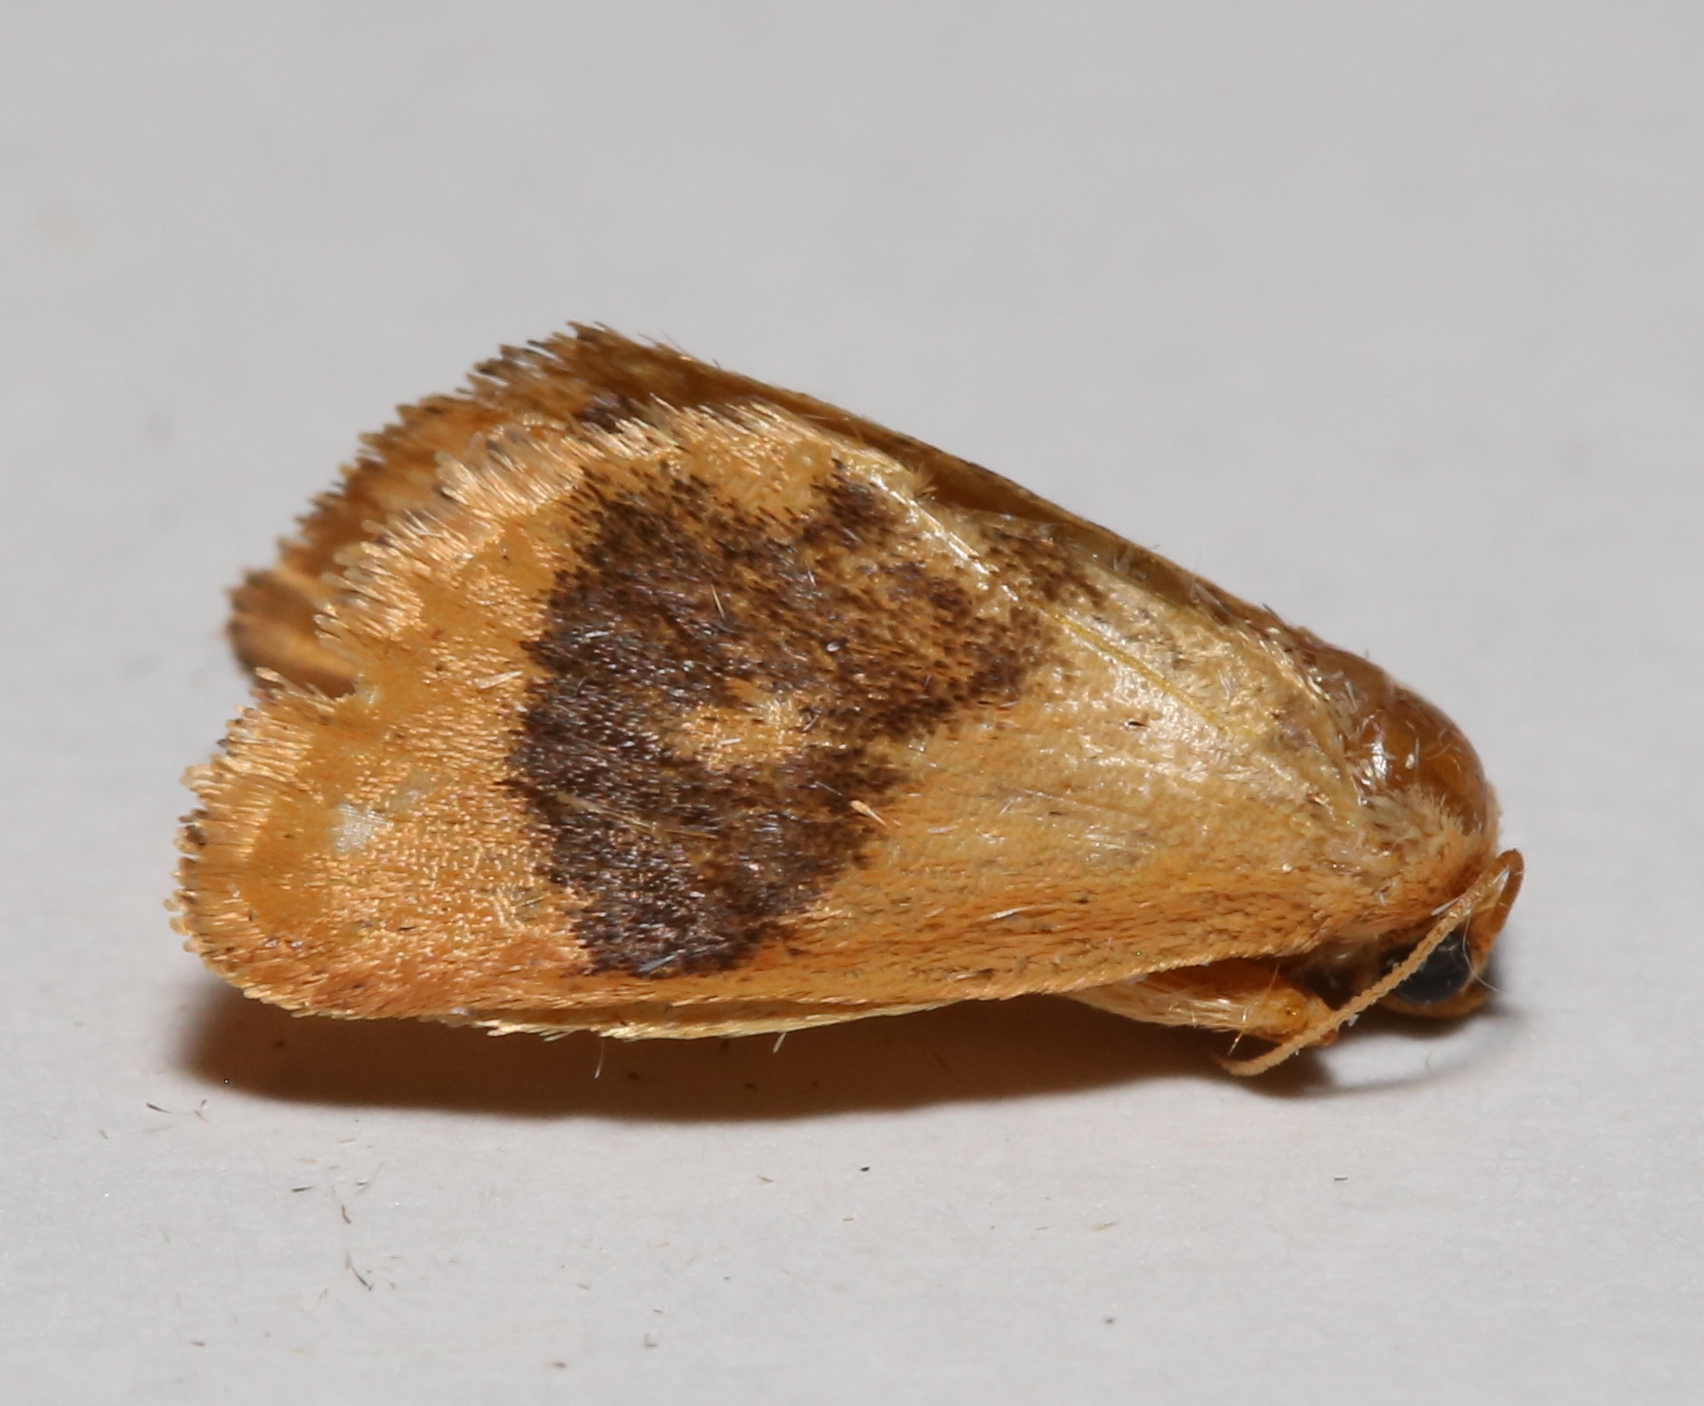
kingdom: Animalia
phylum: Arthropoda
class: Insecta
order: Lepidoptera
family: Limacodidae
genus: Tortricidia
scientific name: Tortricidia flexuosa
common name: Abbreviated button slug moth
